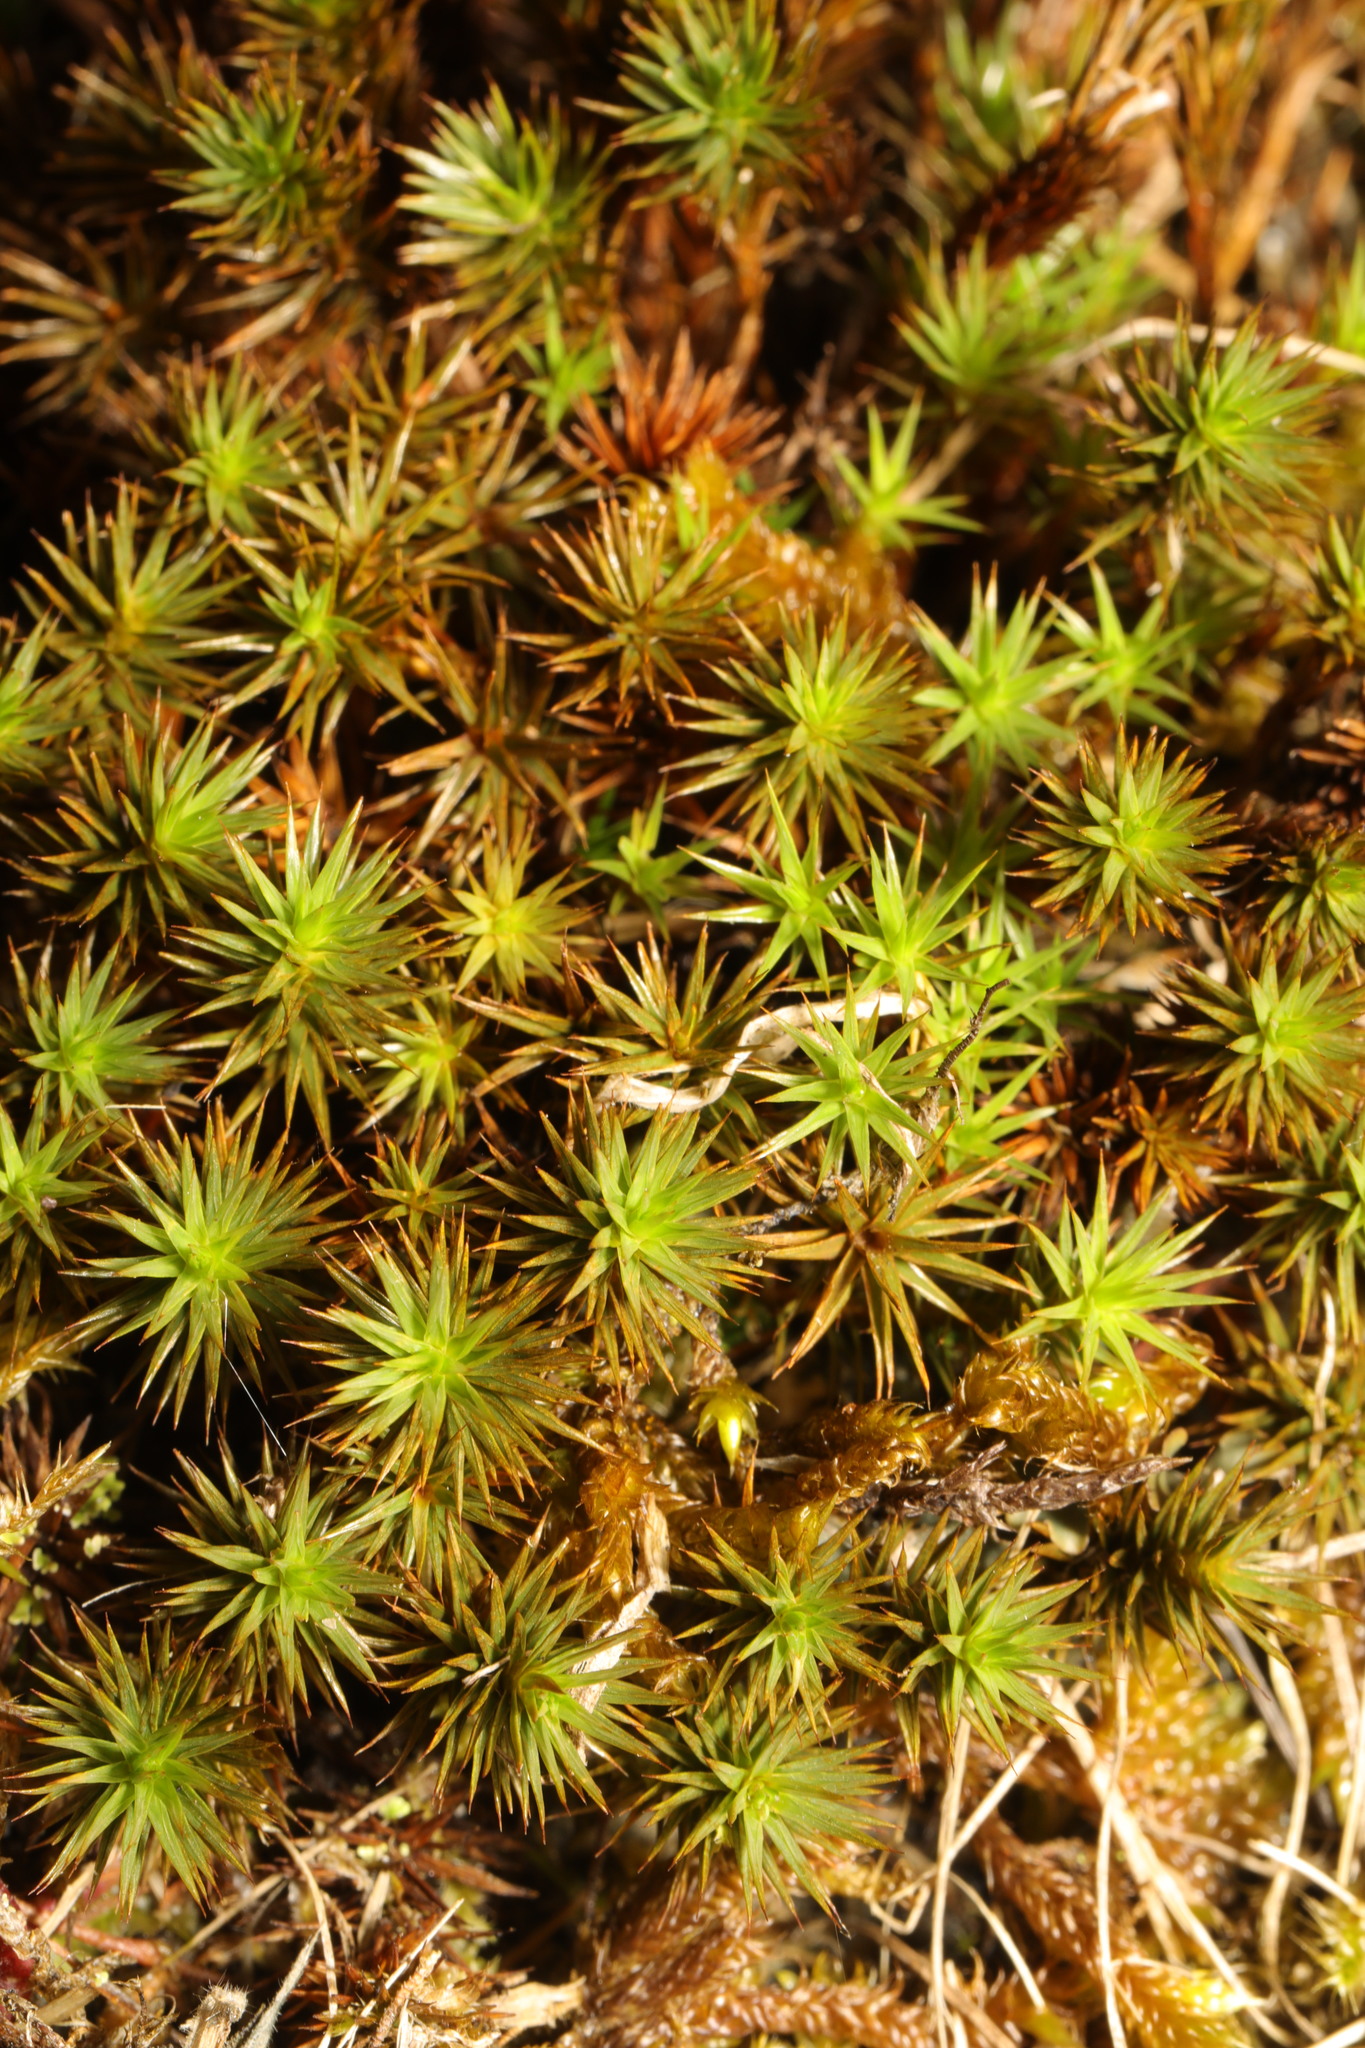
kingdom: Plantae
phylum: Bryophyta
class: Polytrichopsida
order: Polytrichales
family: Polytrichaceae
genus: Polytrichum
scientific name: Polytrichum juniperinum
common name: Juniper haircap moss
